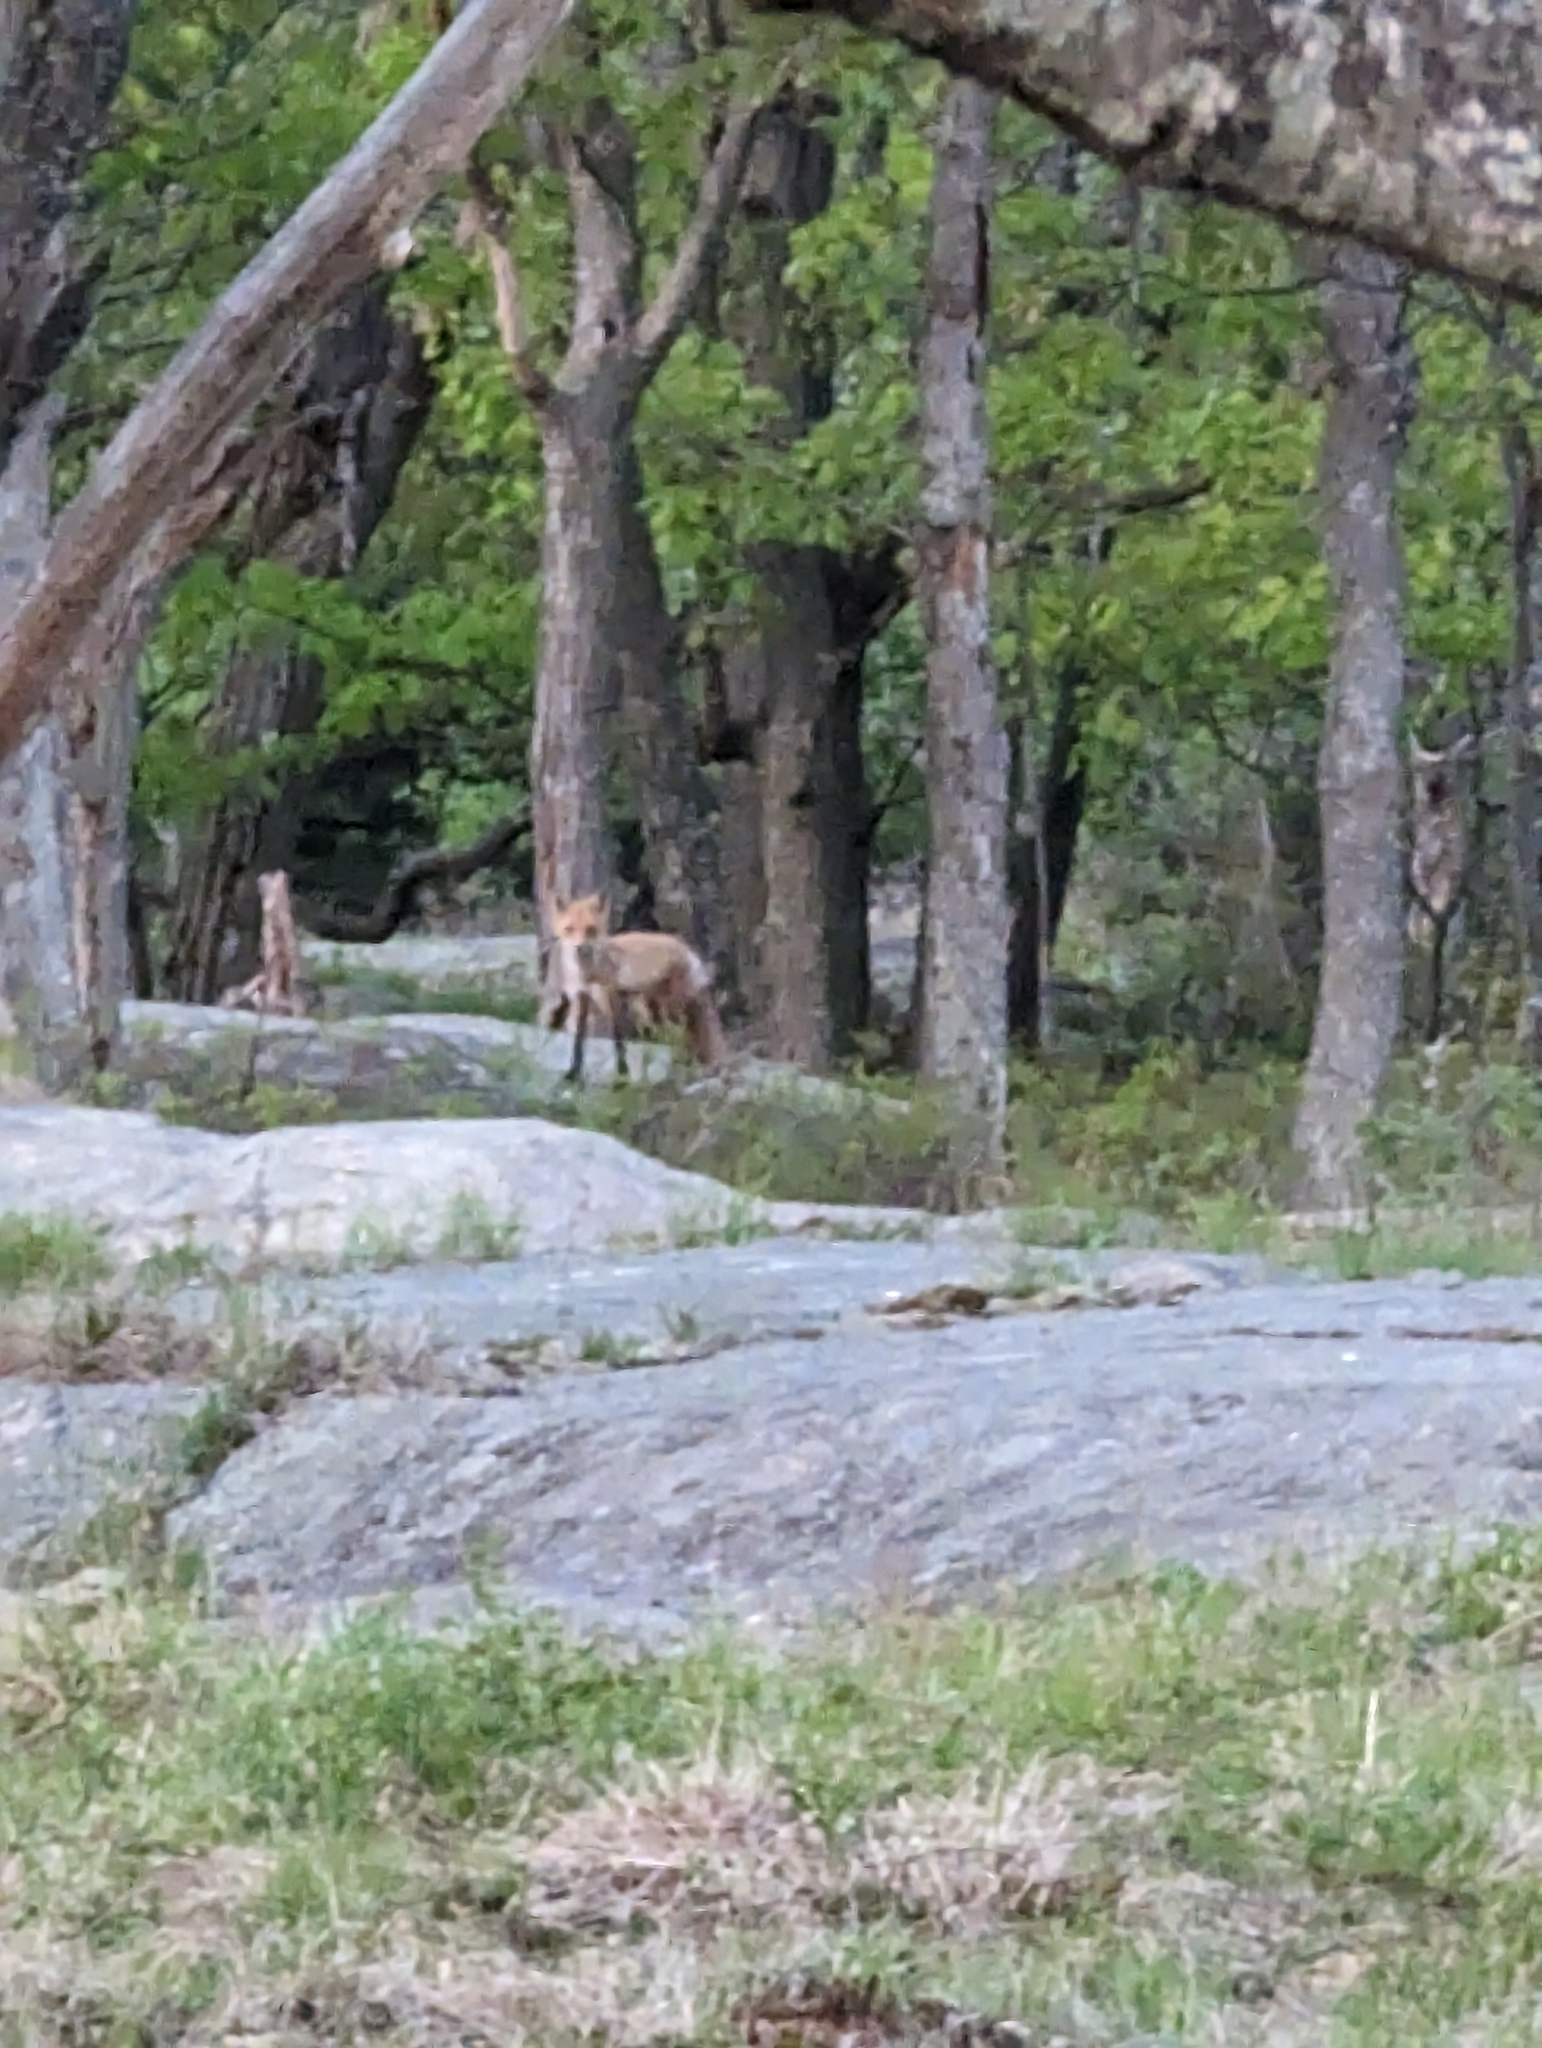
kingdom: Animalia
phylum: Chordata
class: Mammalia
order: Carnivora
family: Canidae
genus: Vulpes
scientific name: Vulpes vulpes
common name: Red fox
